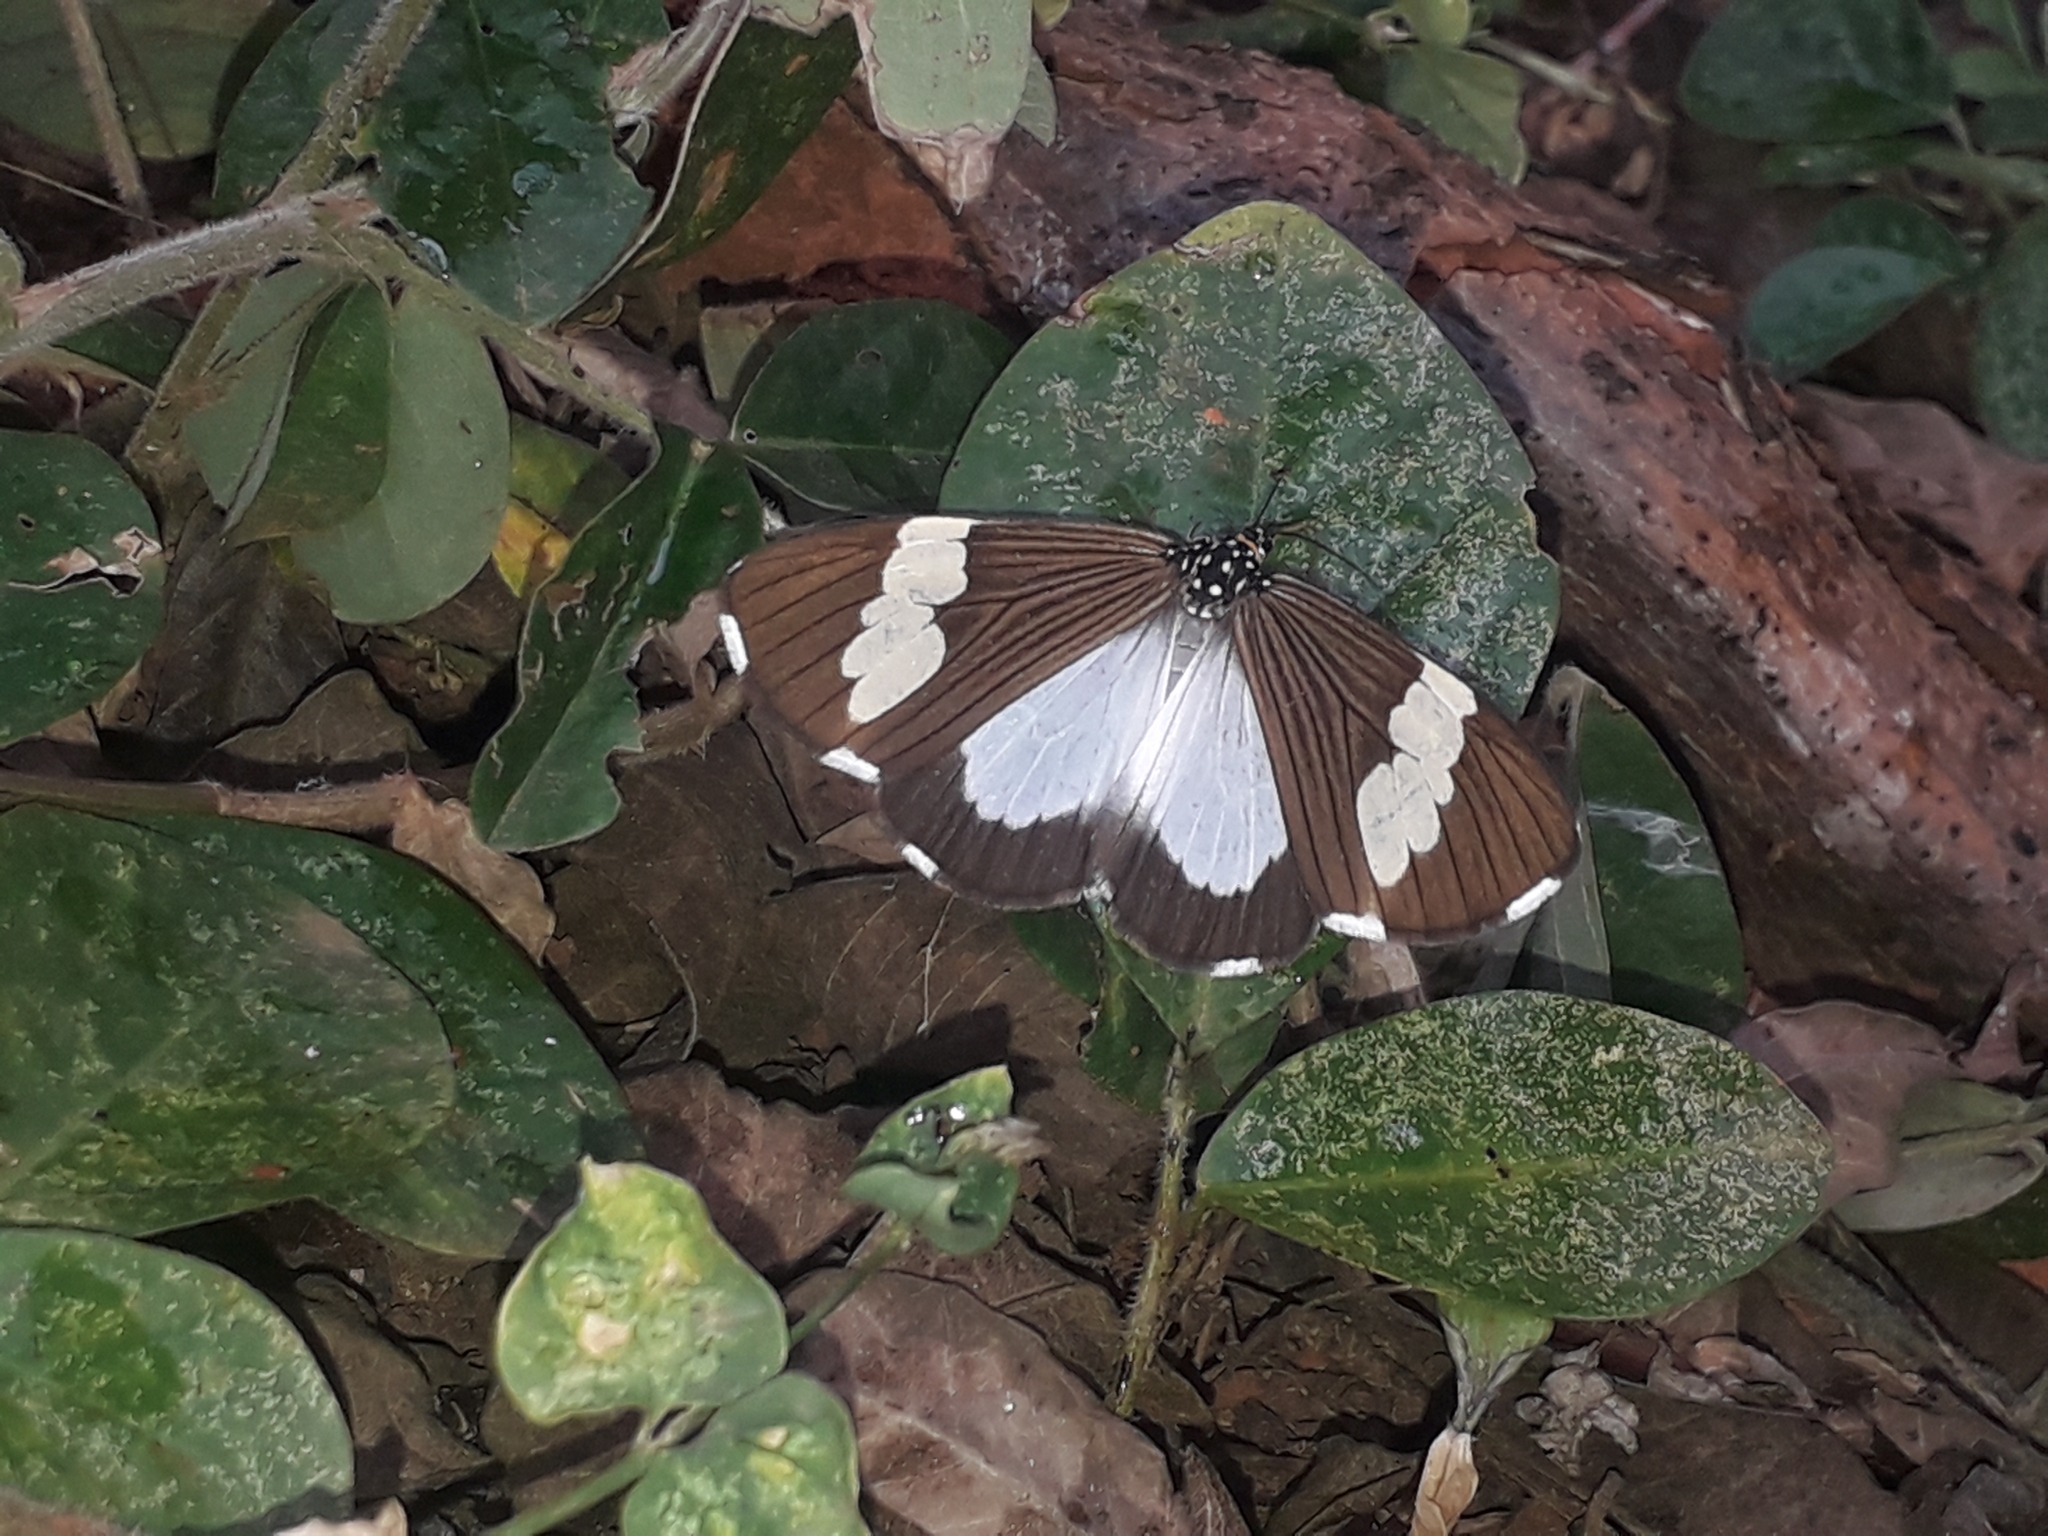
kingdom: Animalia
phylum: Arthropoda
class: Insecta
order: Lepidoptera
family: Erebidae
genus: Nyctemera
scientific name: Nyctemera
